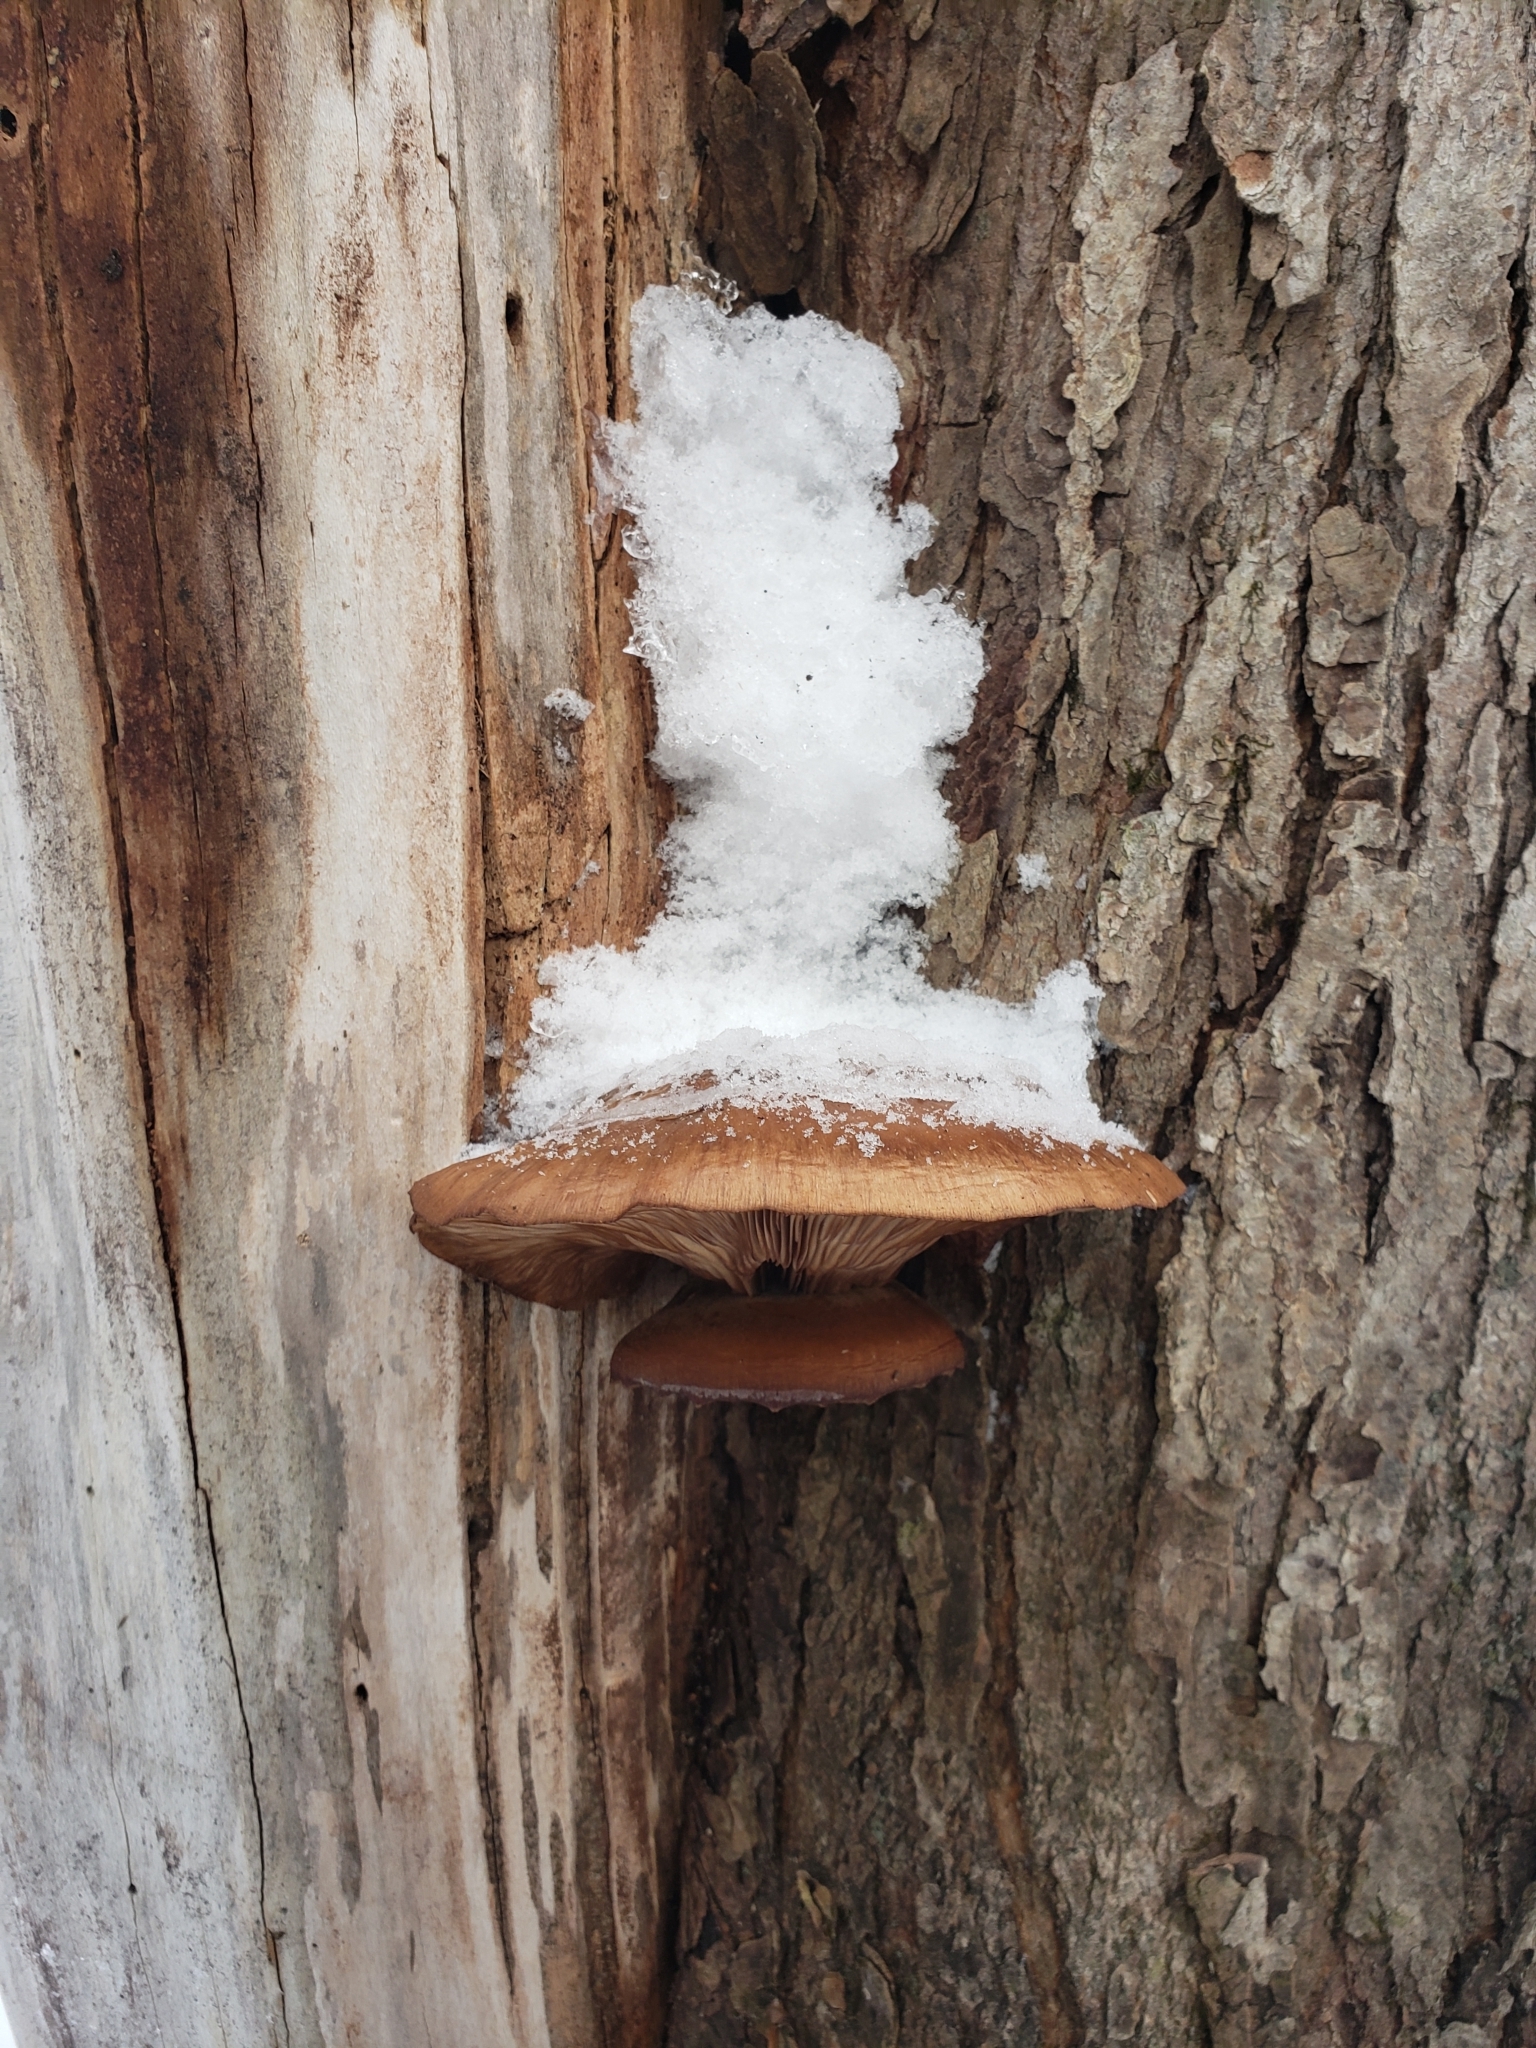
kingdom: Fungi
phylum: Basidiomycota
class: Agaricomycetes
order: Agaricales
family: Sarcomyxaceae
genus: Sarcomyxa
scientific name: Sarcomyxa serotina
